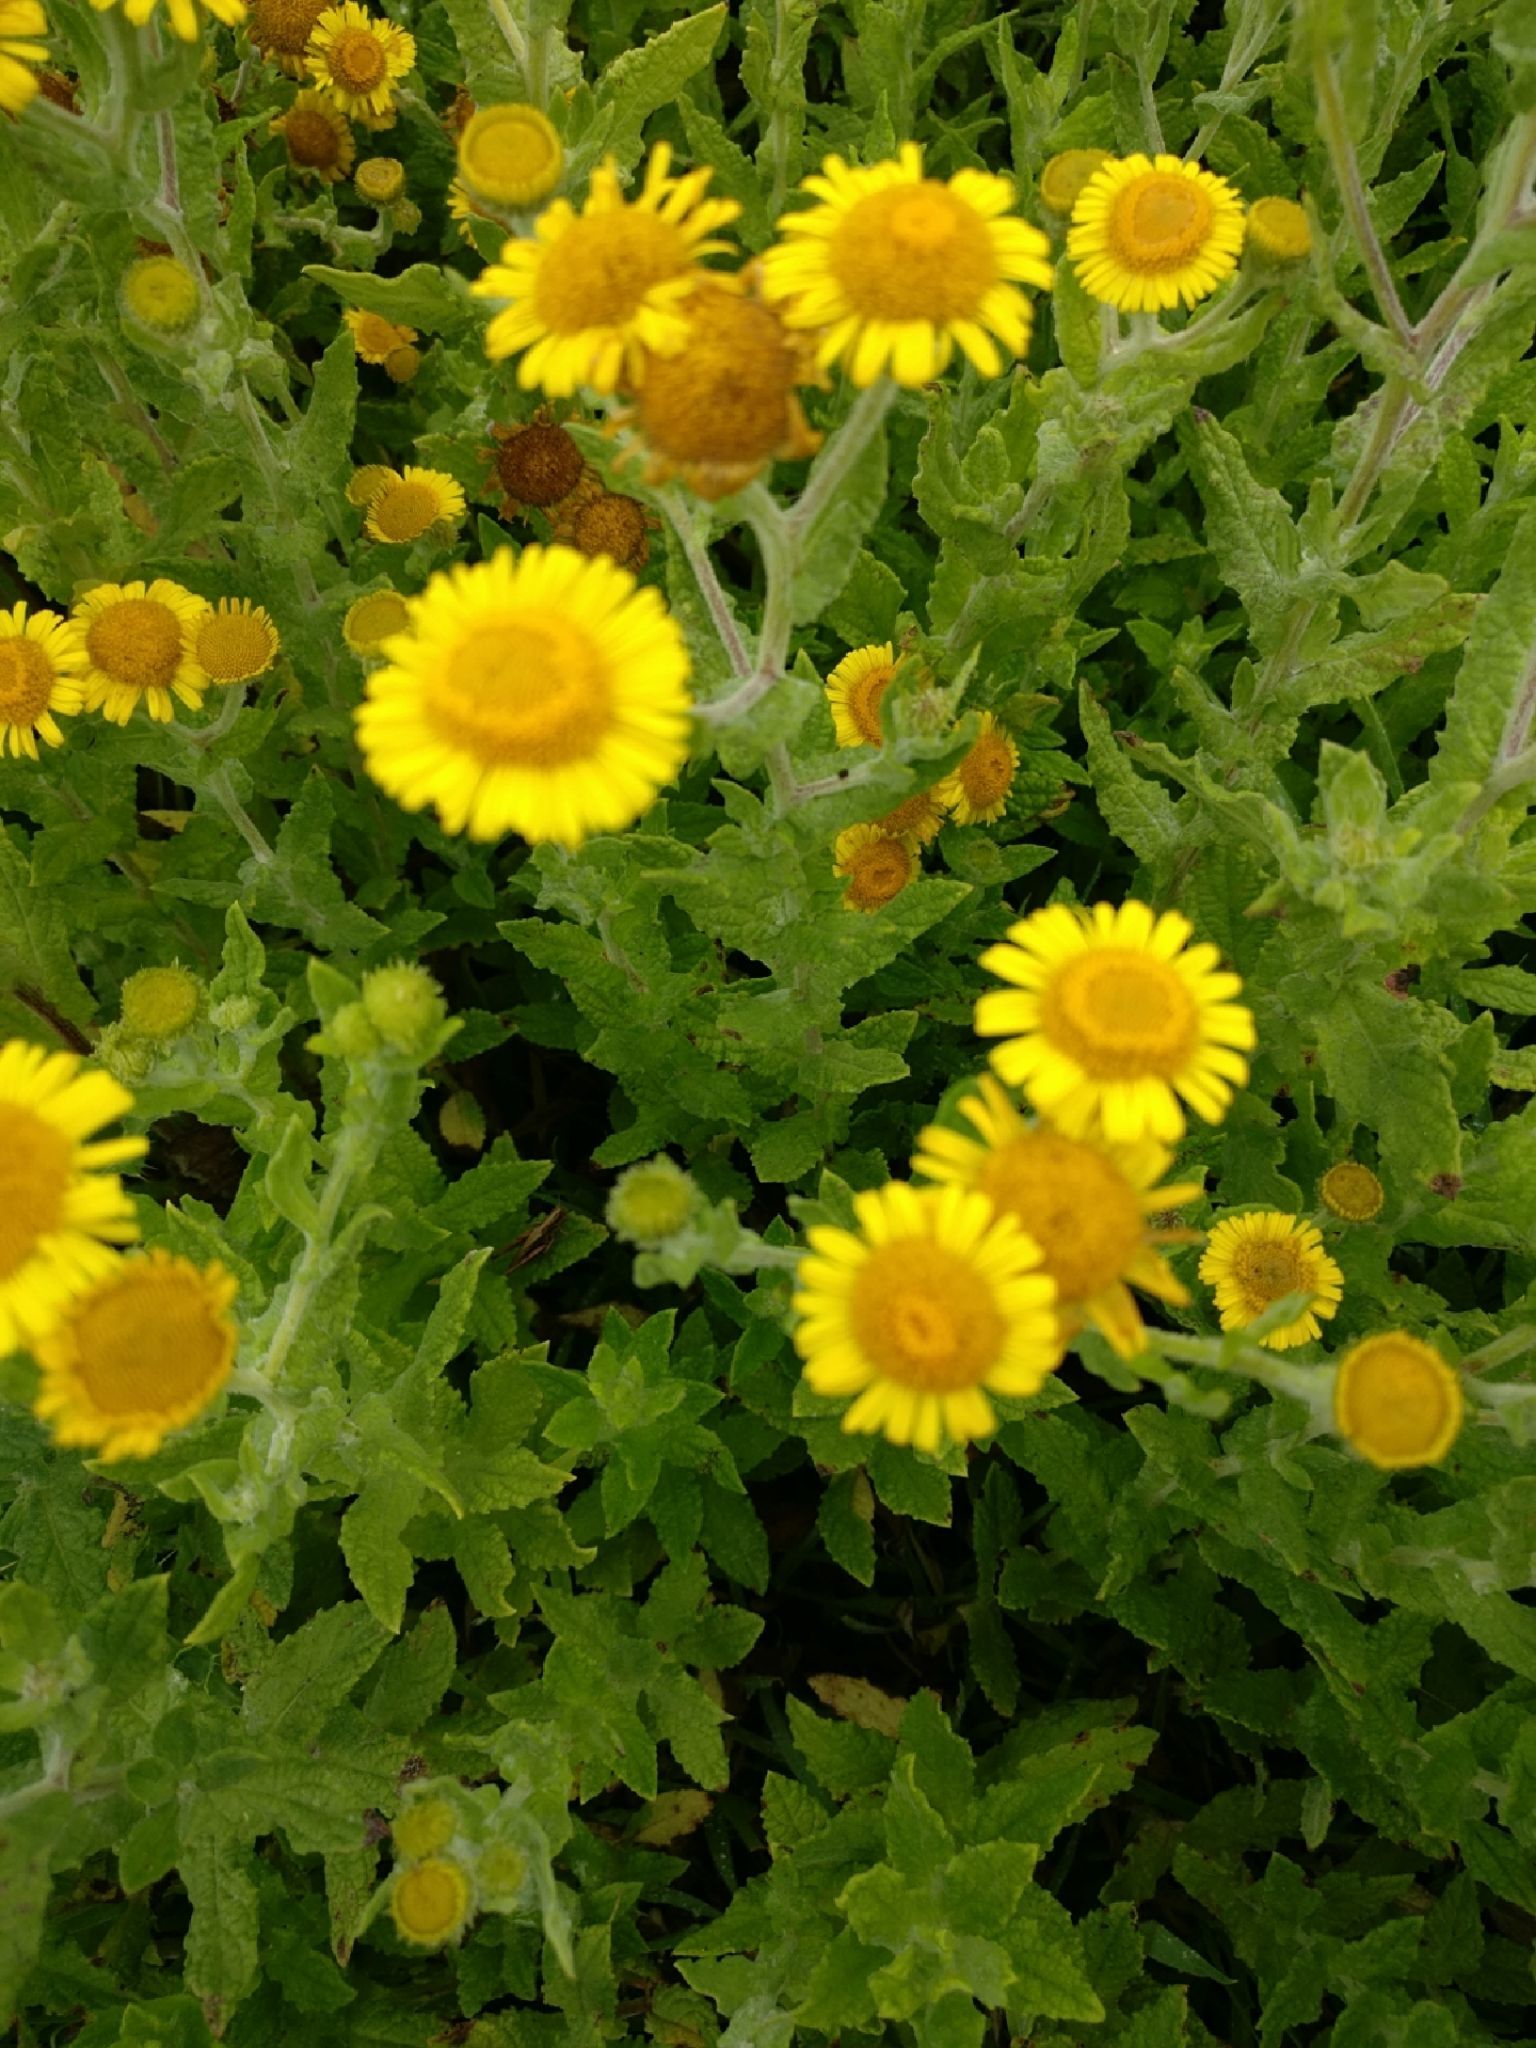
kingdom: Plantae
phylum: Tracheophyta
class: Magnoliopsida
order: Asterales
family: Asteraceae
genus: Pulicaria
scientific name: Pulicaria dysenterica
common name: Common fleabane
